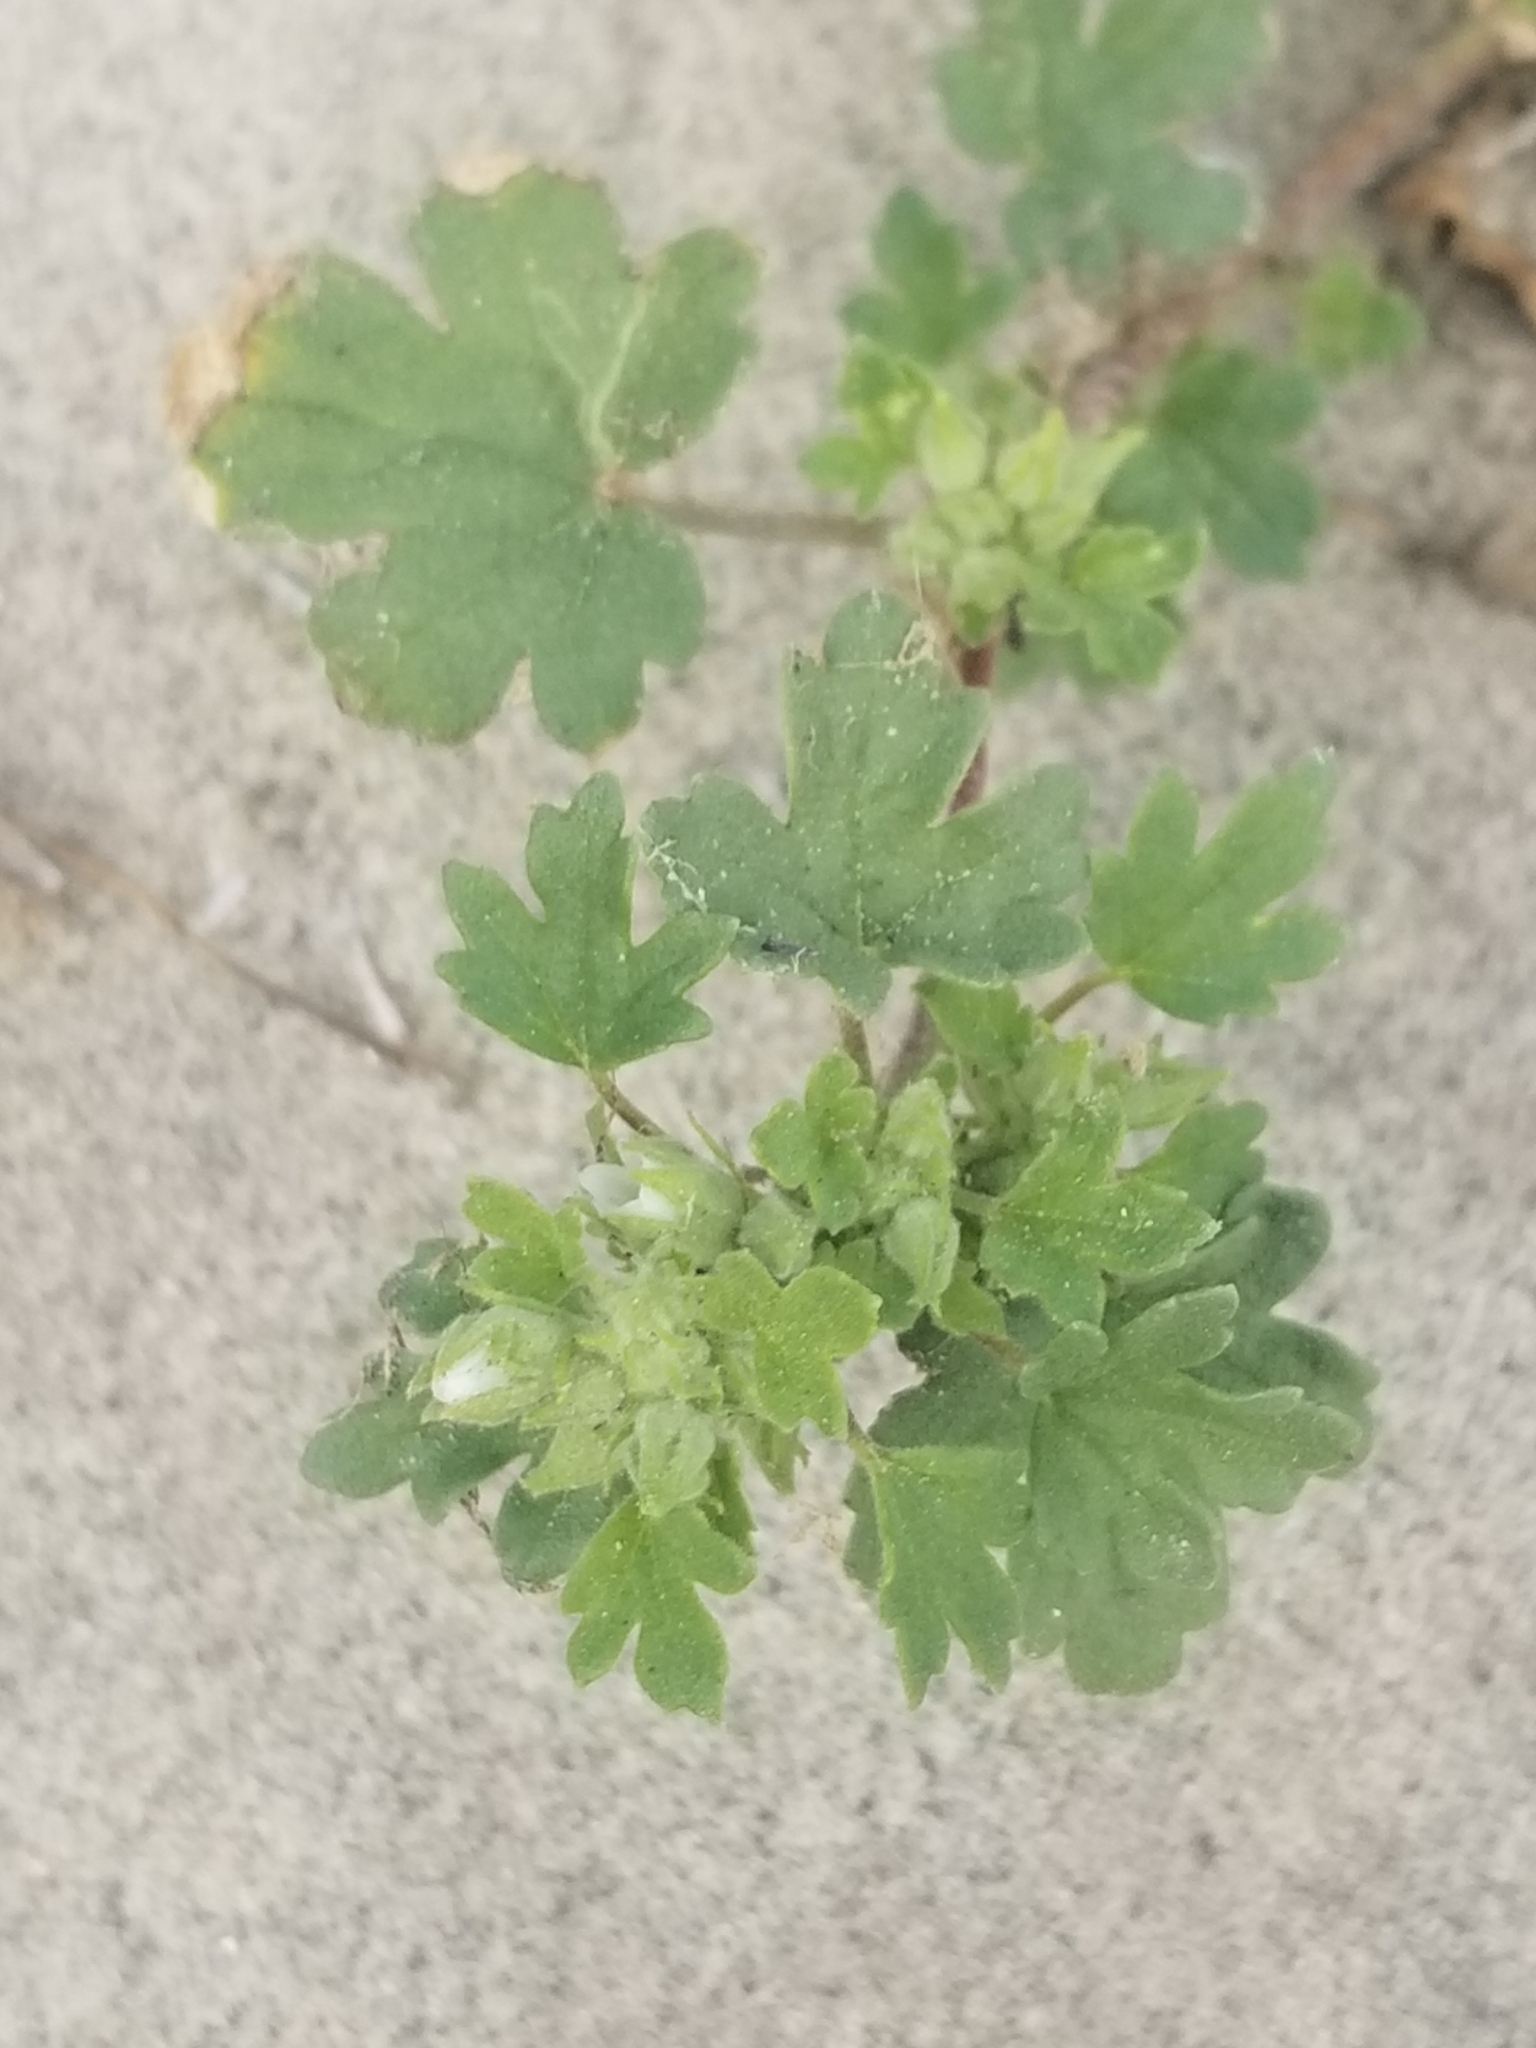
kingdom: Plantae
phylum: Tracheophyta
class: Magnoliopsida
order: Malvales
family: Malvaceae
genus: Eremalche
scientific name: Eremalche exilis
